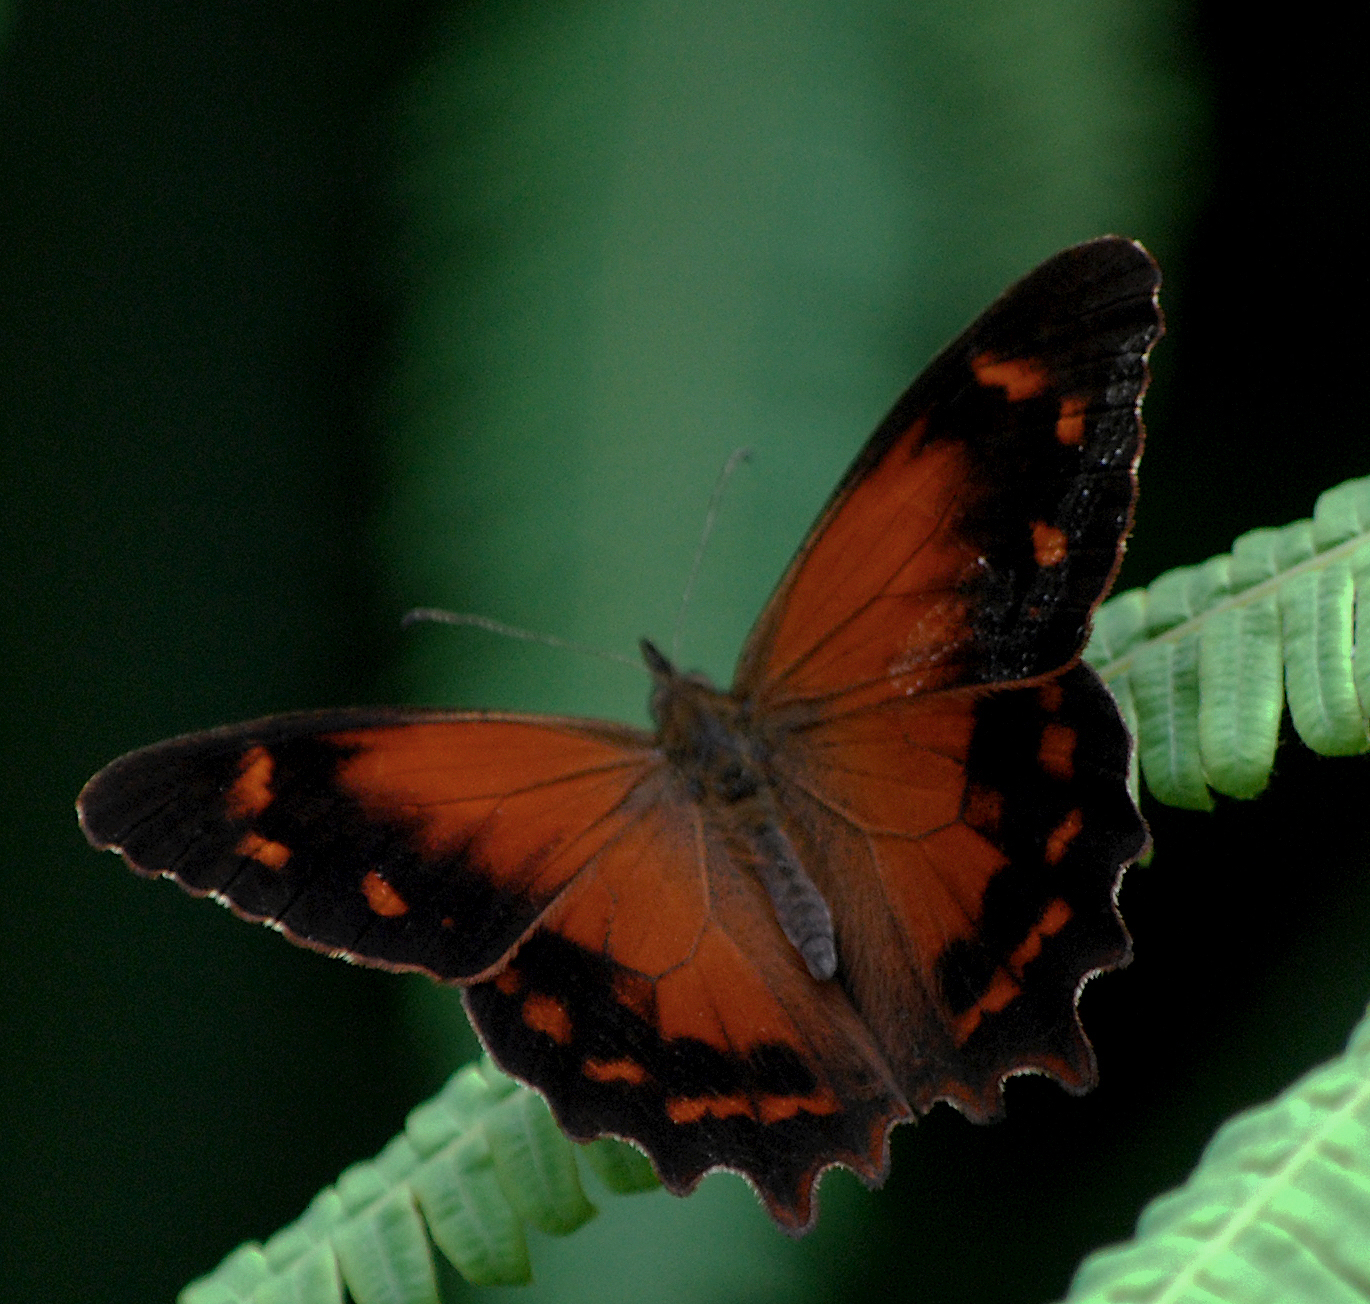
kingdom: Animalia
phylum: Arthropoda
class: Insecta
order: Lepidoptera
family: Nymphalidae
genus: Lasiophila
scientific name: Lasiophila zapatoza
